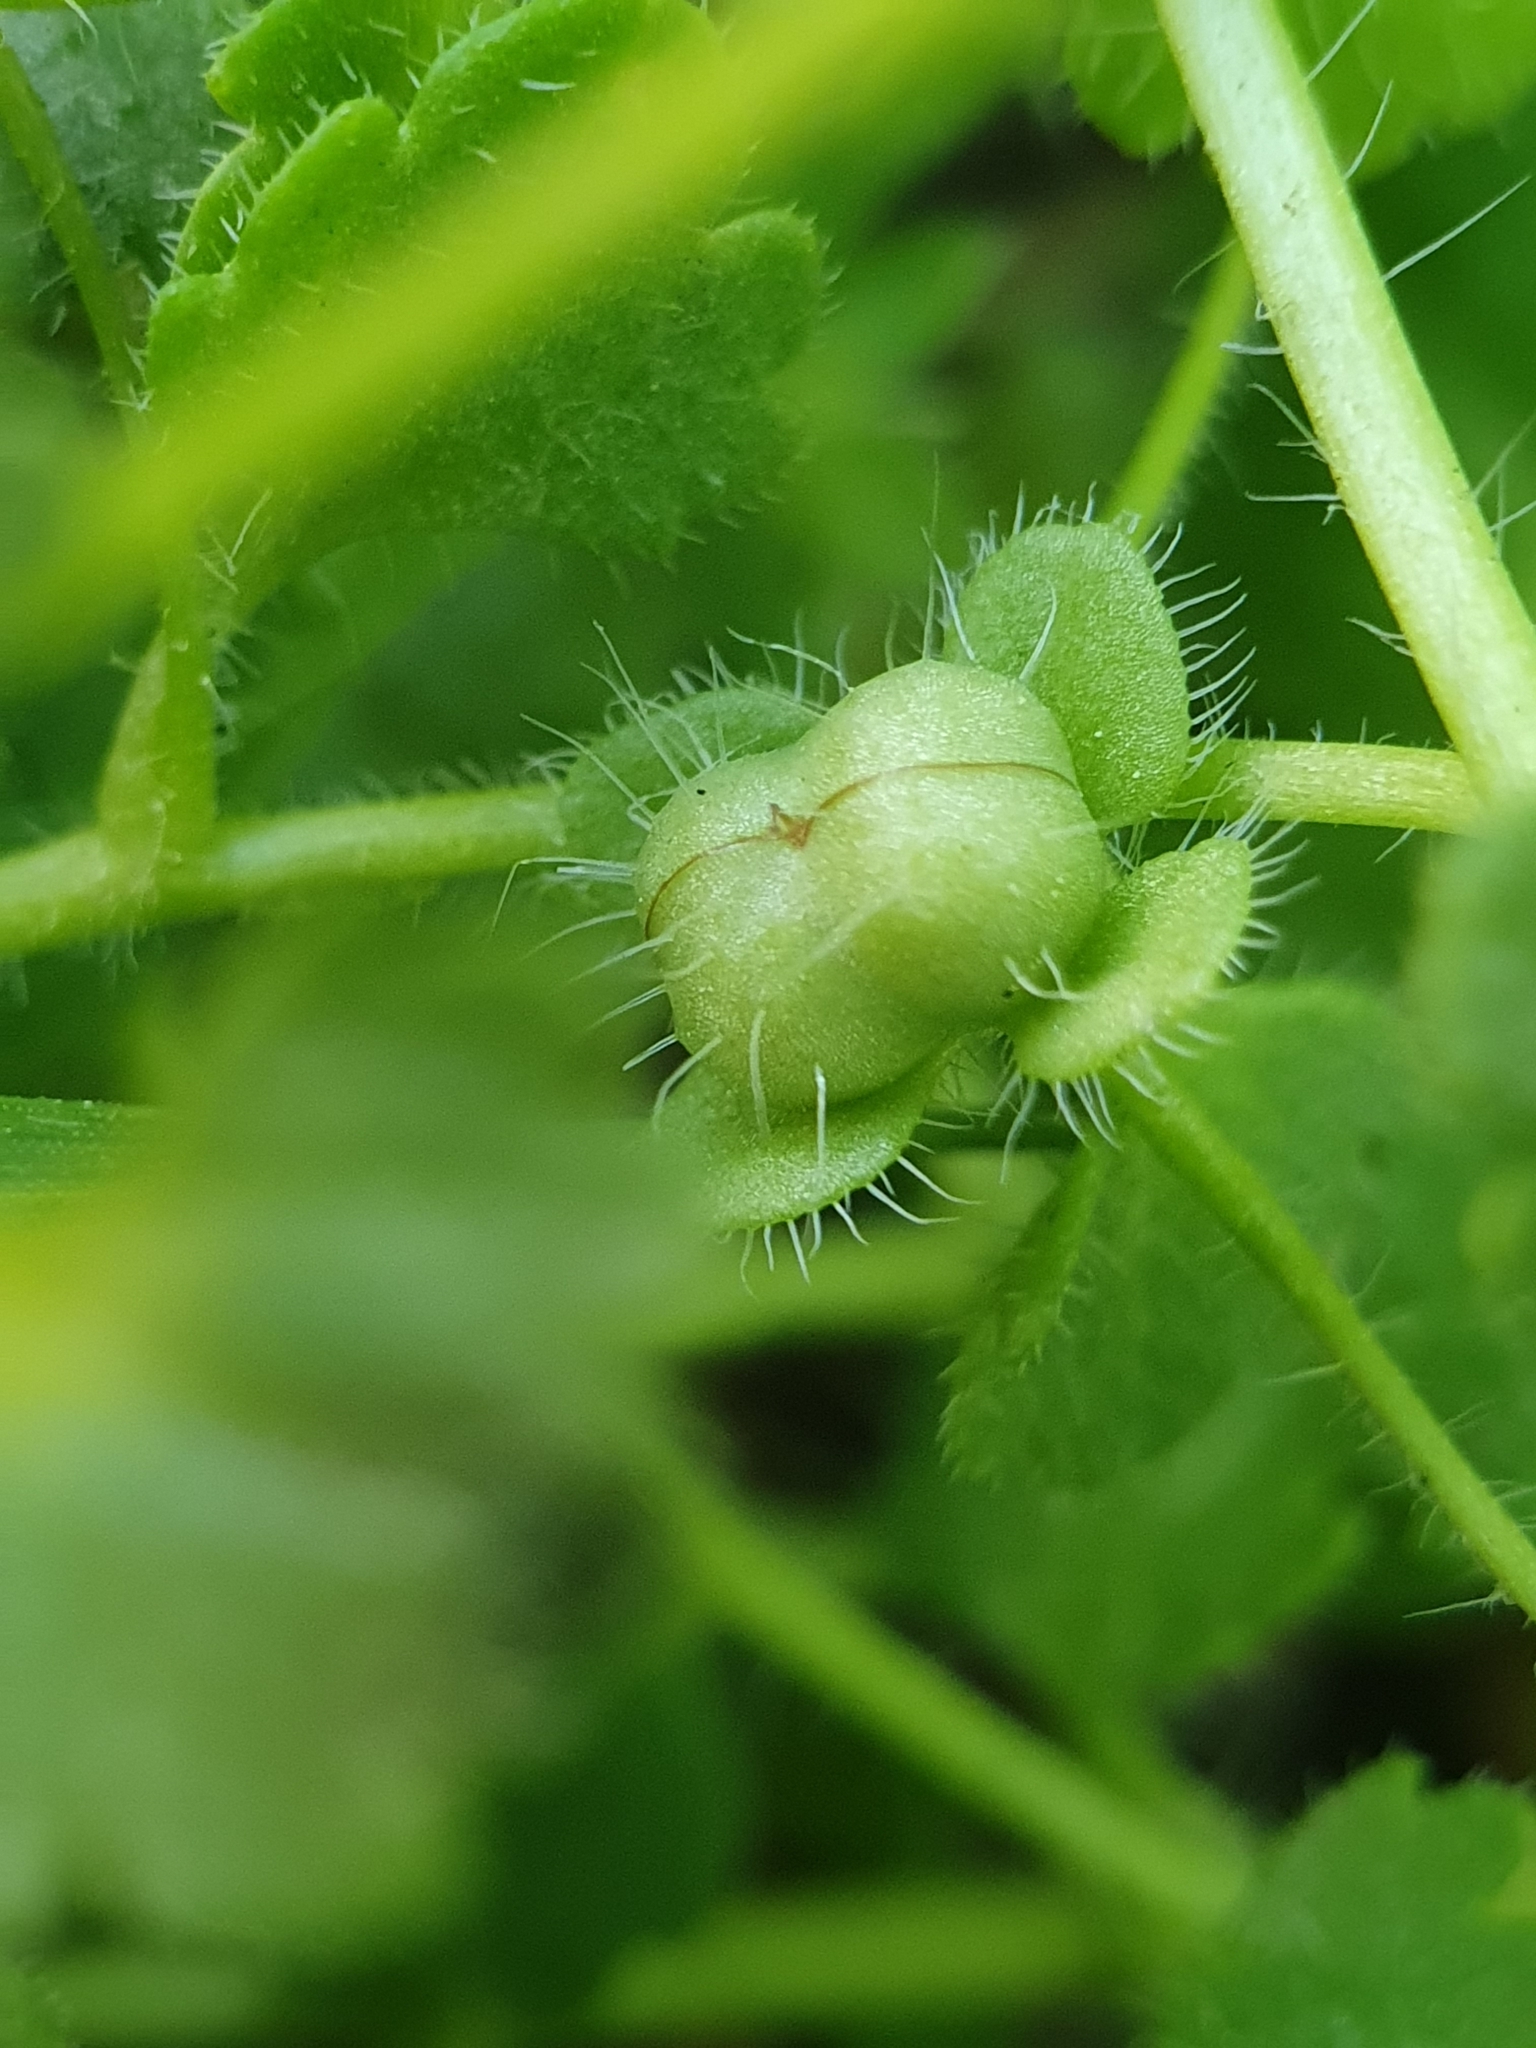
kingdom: Plantae
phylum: Tracheophyta
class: Magnoliopsida
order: Lamiales
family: Plantaginaceae
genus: Veronica
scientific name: Veronica cymbalaria
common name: Pale speedwell
